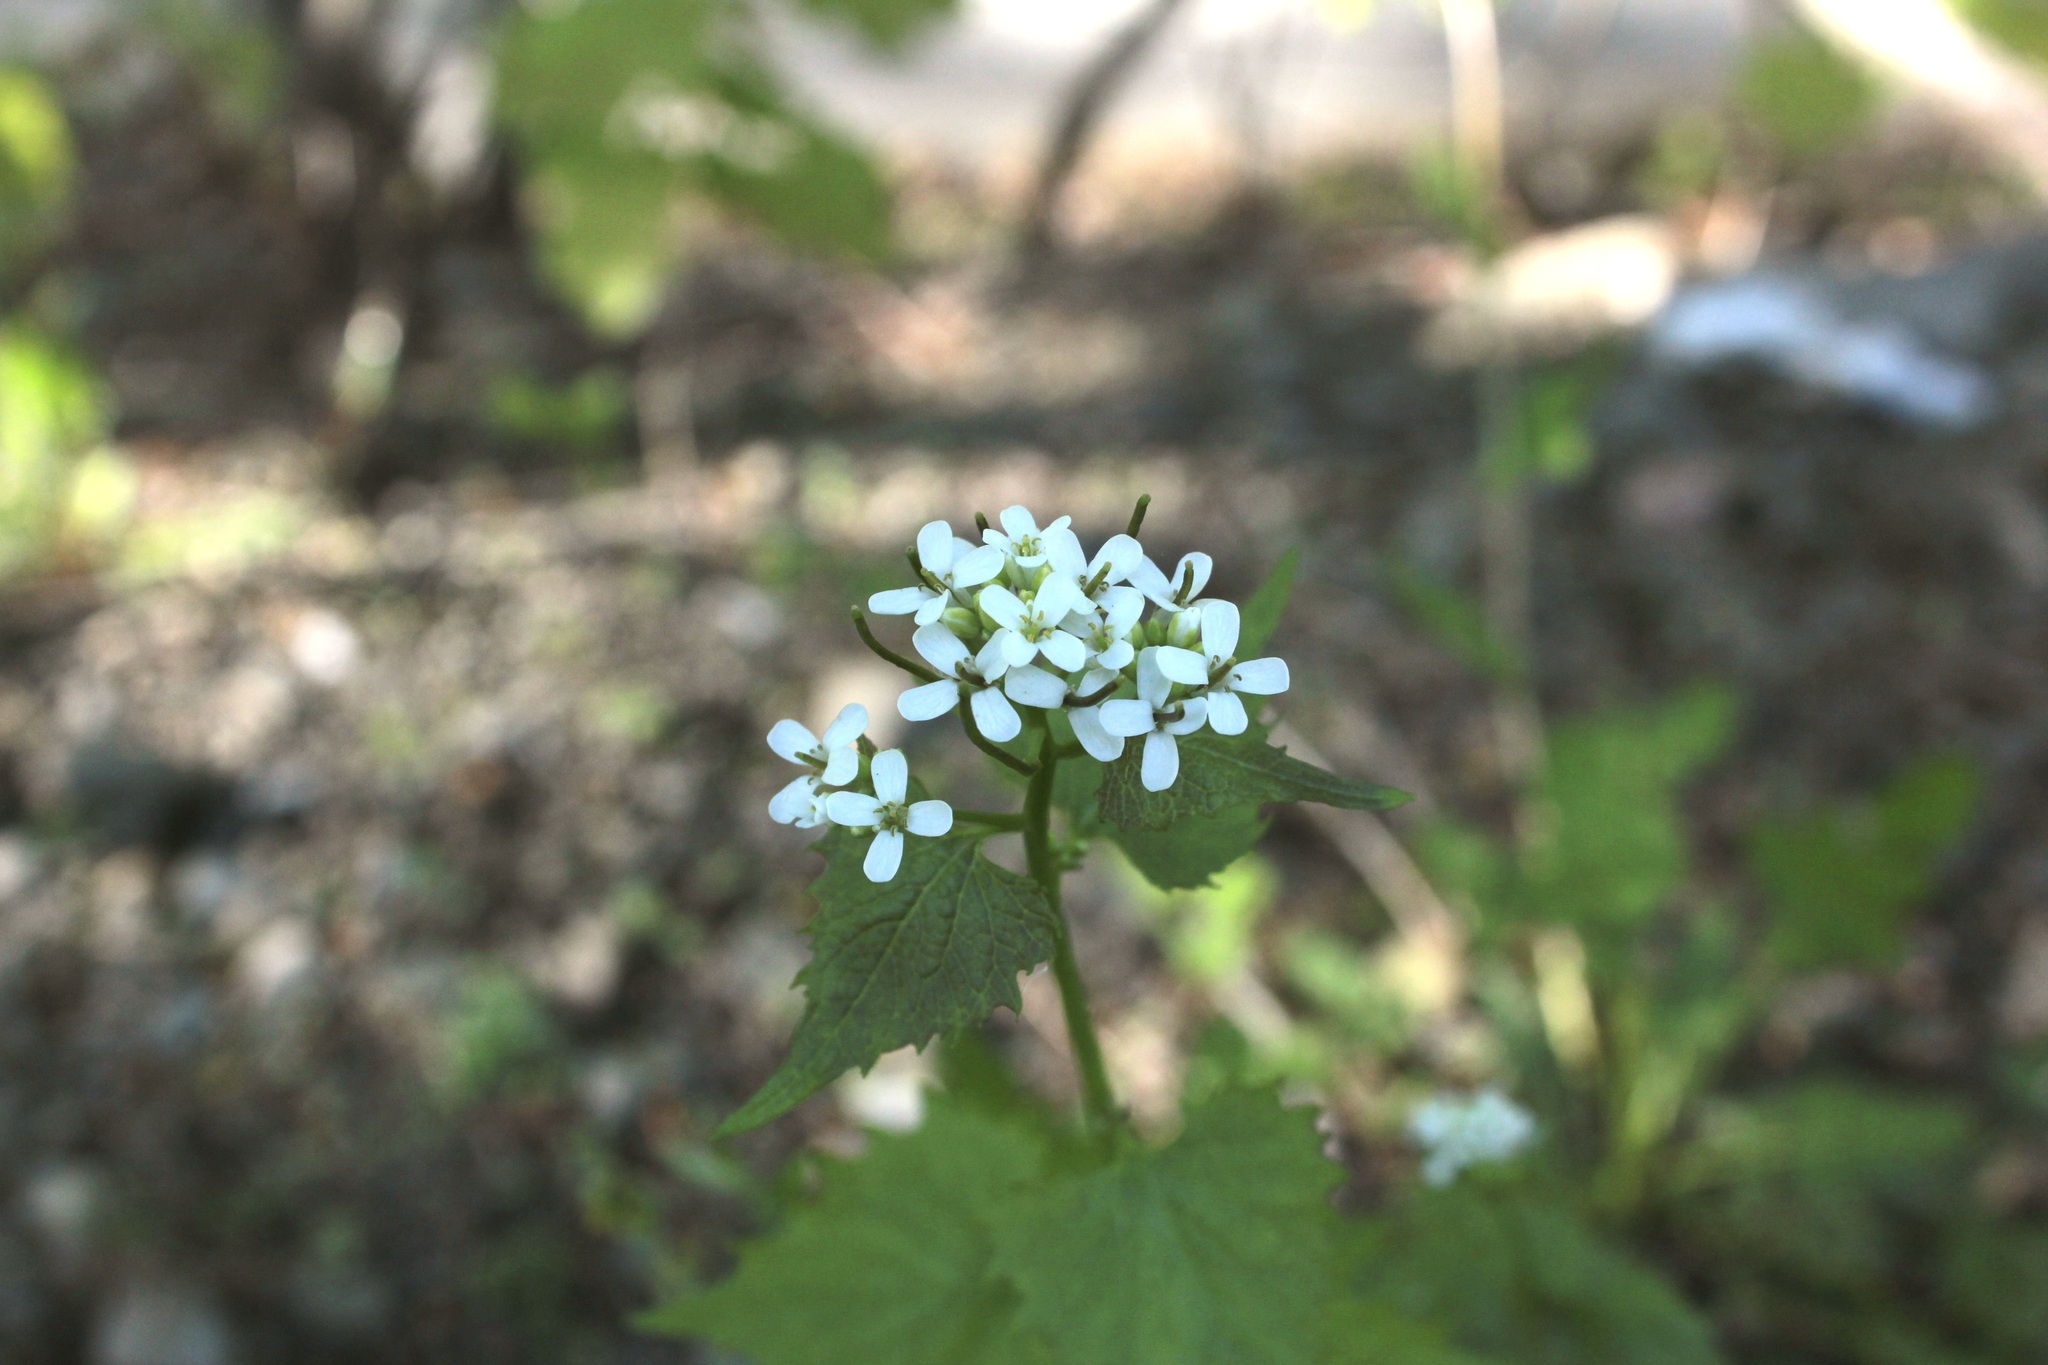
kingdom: Plantae
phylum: Tracheophyta
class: Magnoliopsida
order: Brassicales
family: Brassicaceae
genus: Alliaria
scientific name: Alliaria petiolata
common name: Garlic mustard
